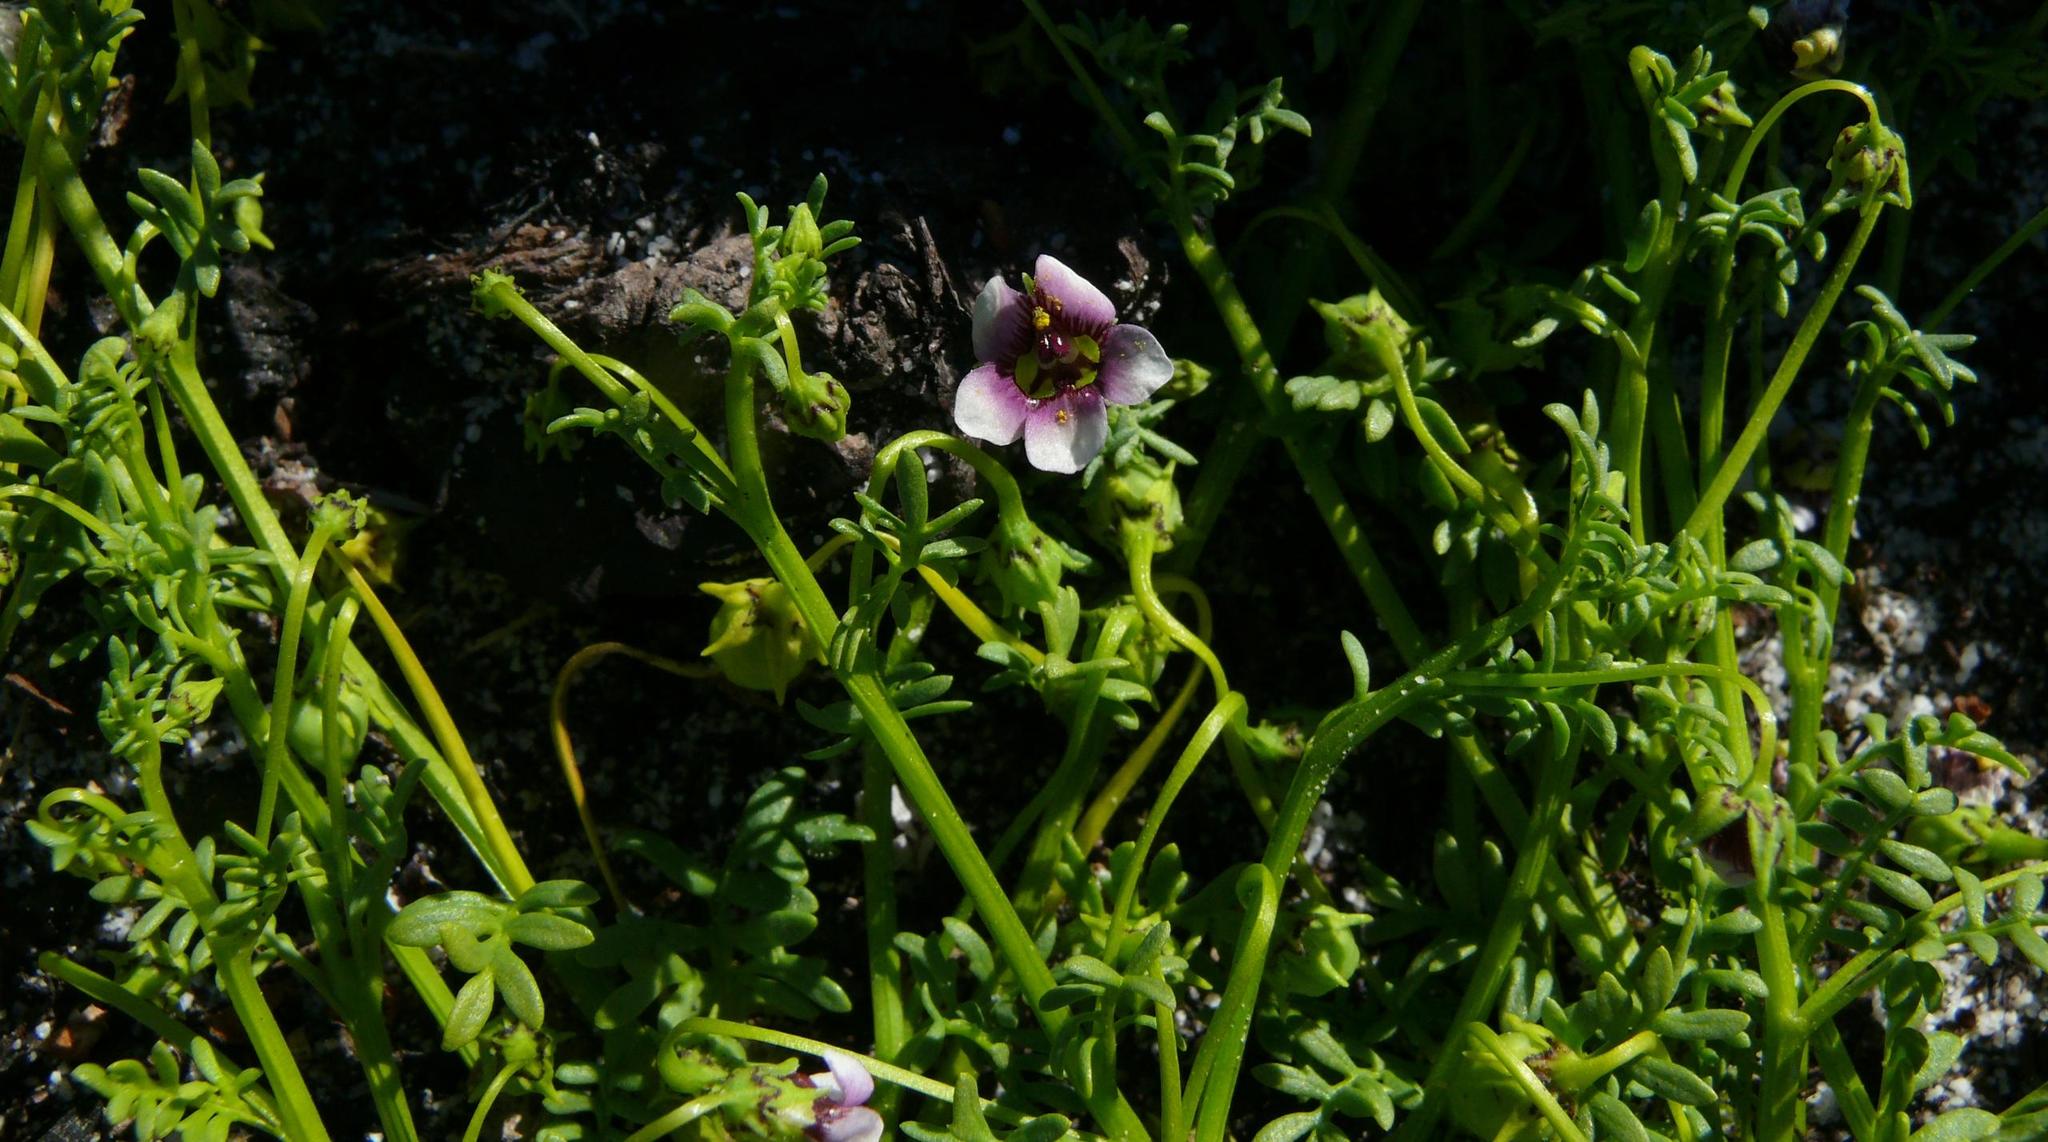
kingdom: Plantae
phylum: Tracheophyta
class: Magnoliopsida
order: Lamiales
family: Scrophulariaceae
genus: Diascia
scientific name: Diascia elongata
